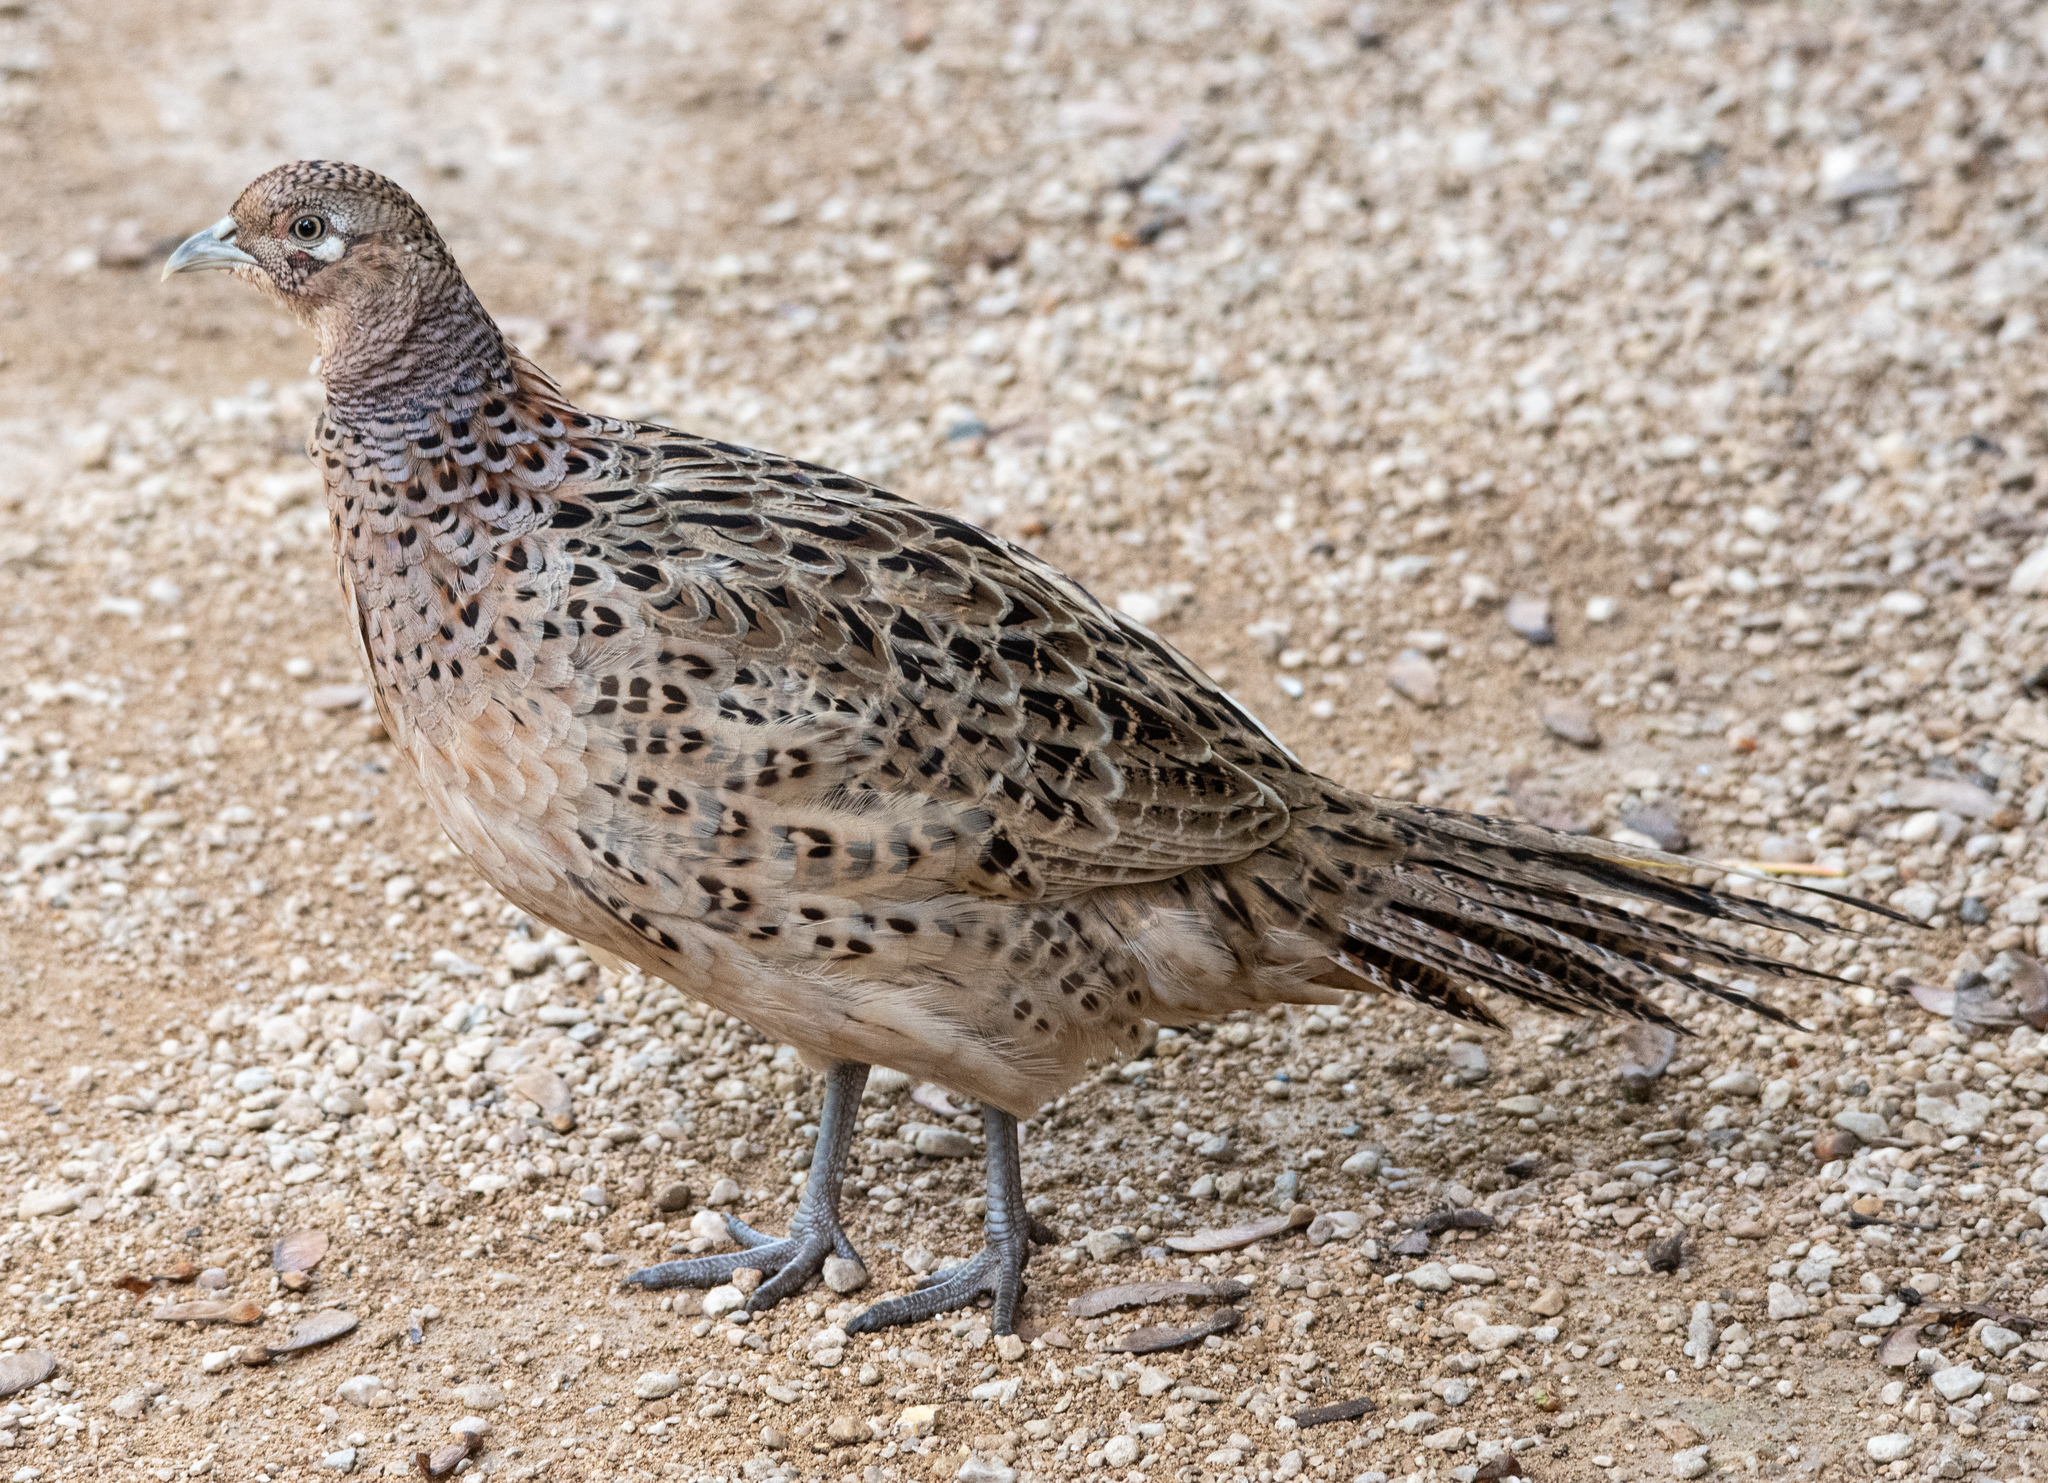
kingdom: Animalia
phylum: Chordata
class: Aves
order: Galliformes
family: Phasianidae
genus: Phasianus
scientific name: Phasianus colchicus
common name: Common pheasant
